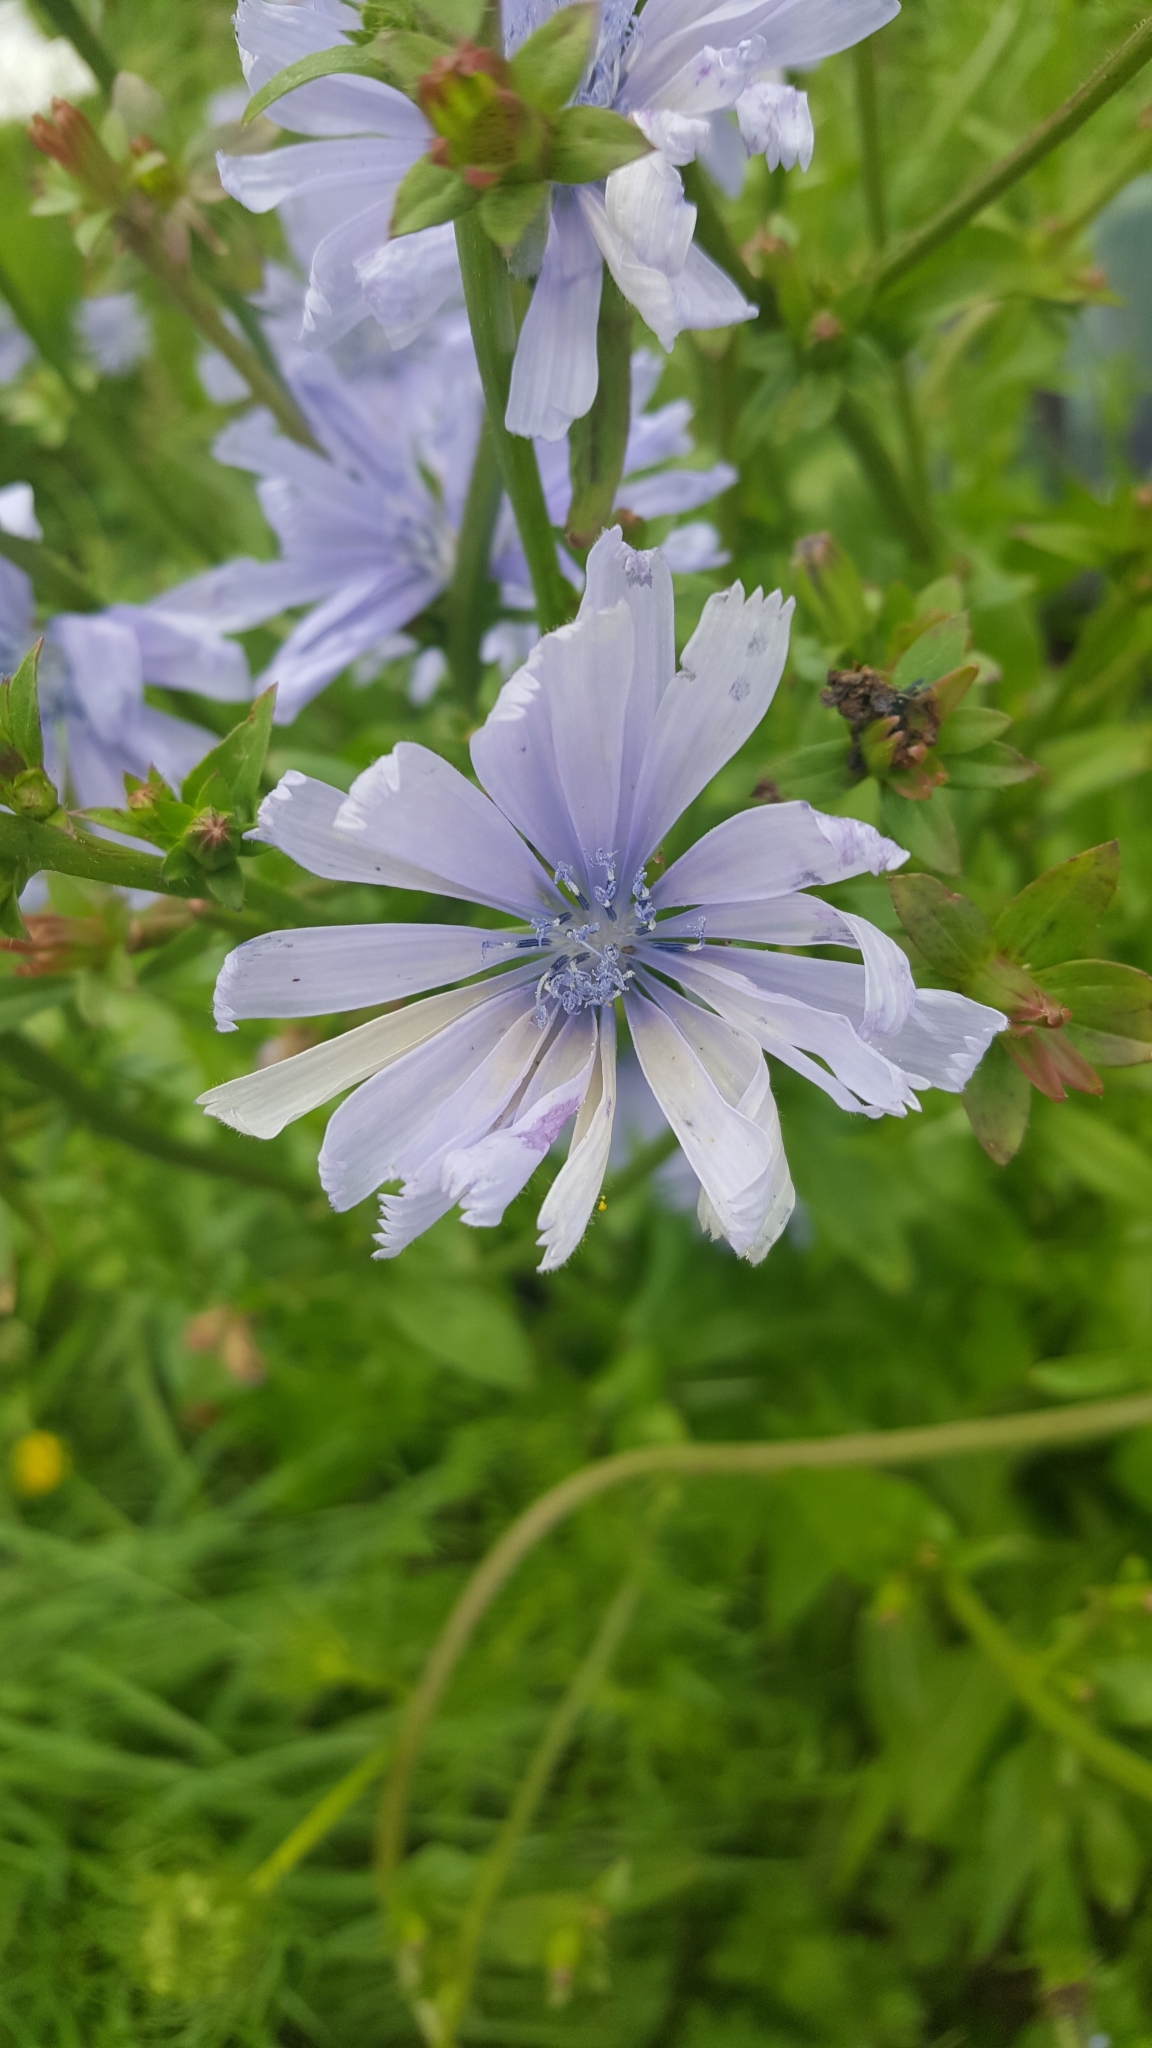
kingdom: Plantae
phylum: Tracheophyta
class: Magnoliopsida
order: Asterales
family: Asteraceae
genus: Cichorium
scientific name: Cichorium intybus
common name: Chicory
